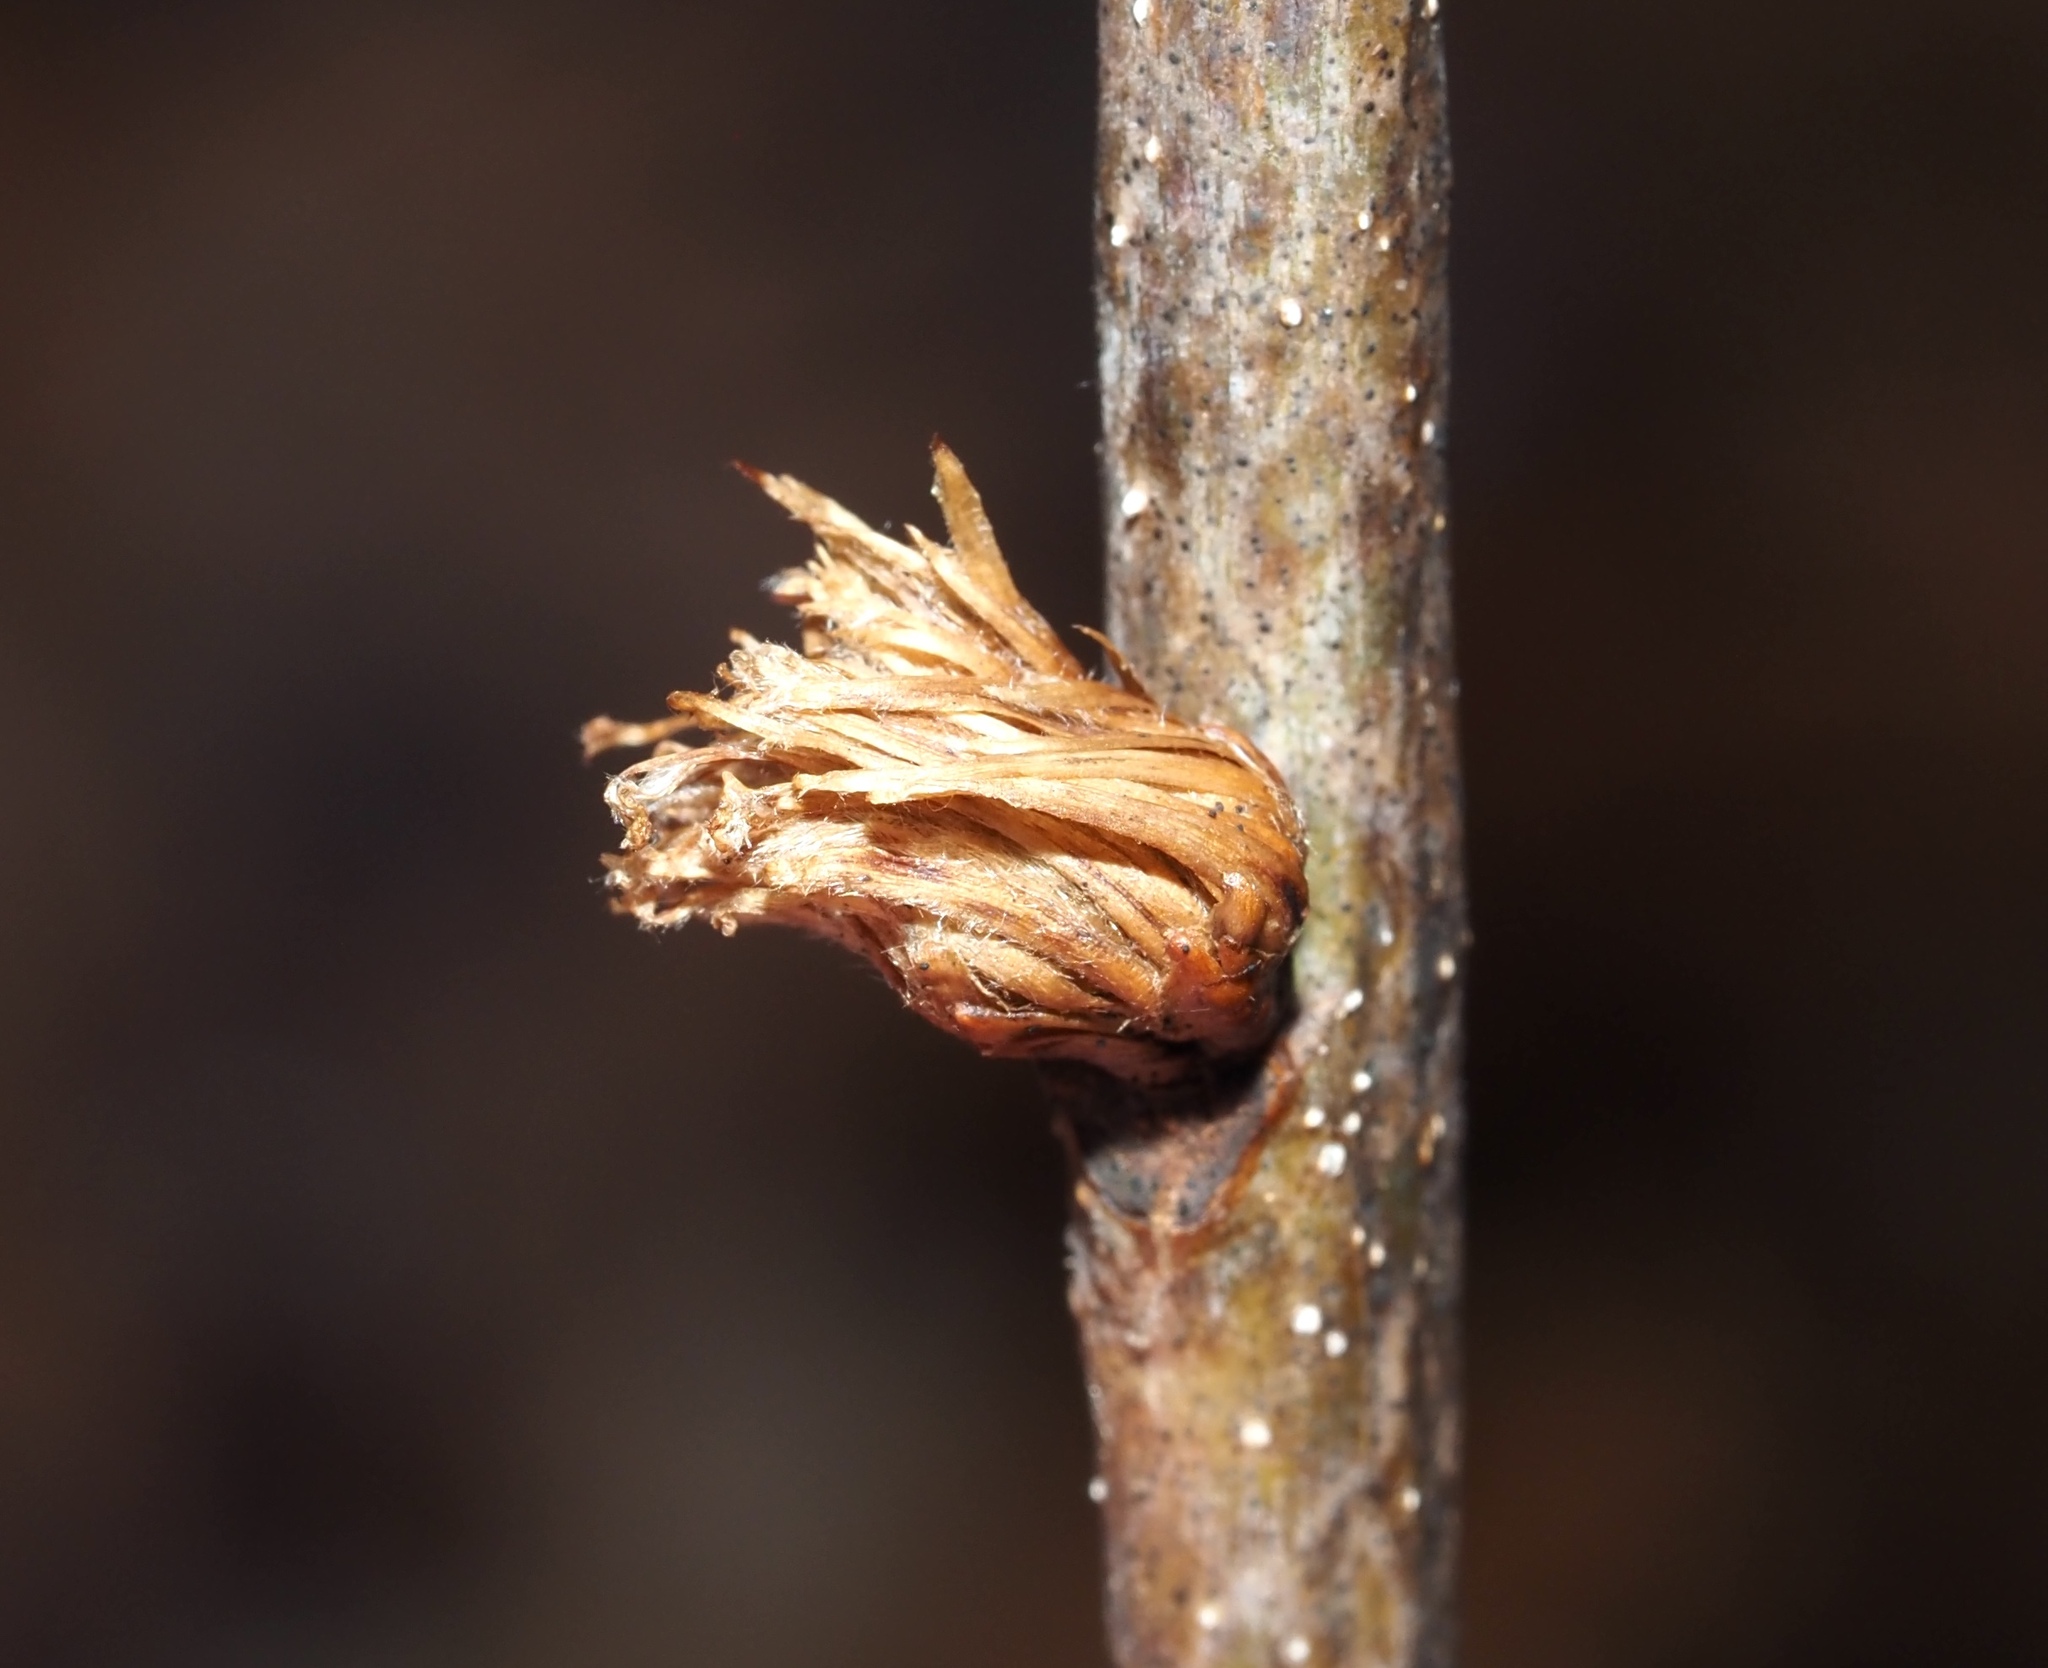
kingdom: Animalia
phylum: Arthropoda
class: Insecta
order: Hymenoptera
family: Cynipidae
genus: Andricus
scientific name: Andricus
